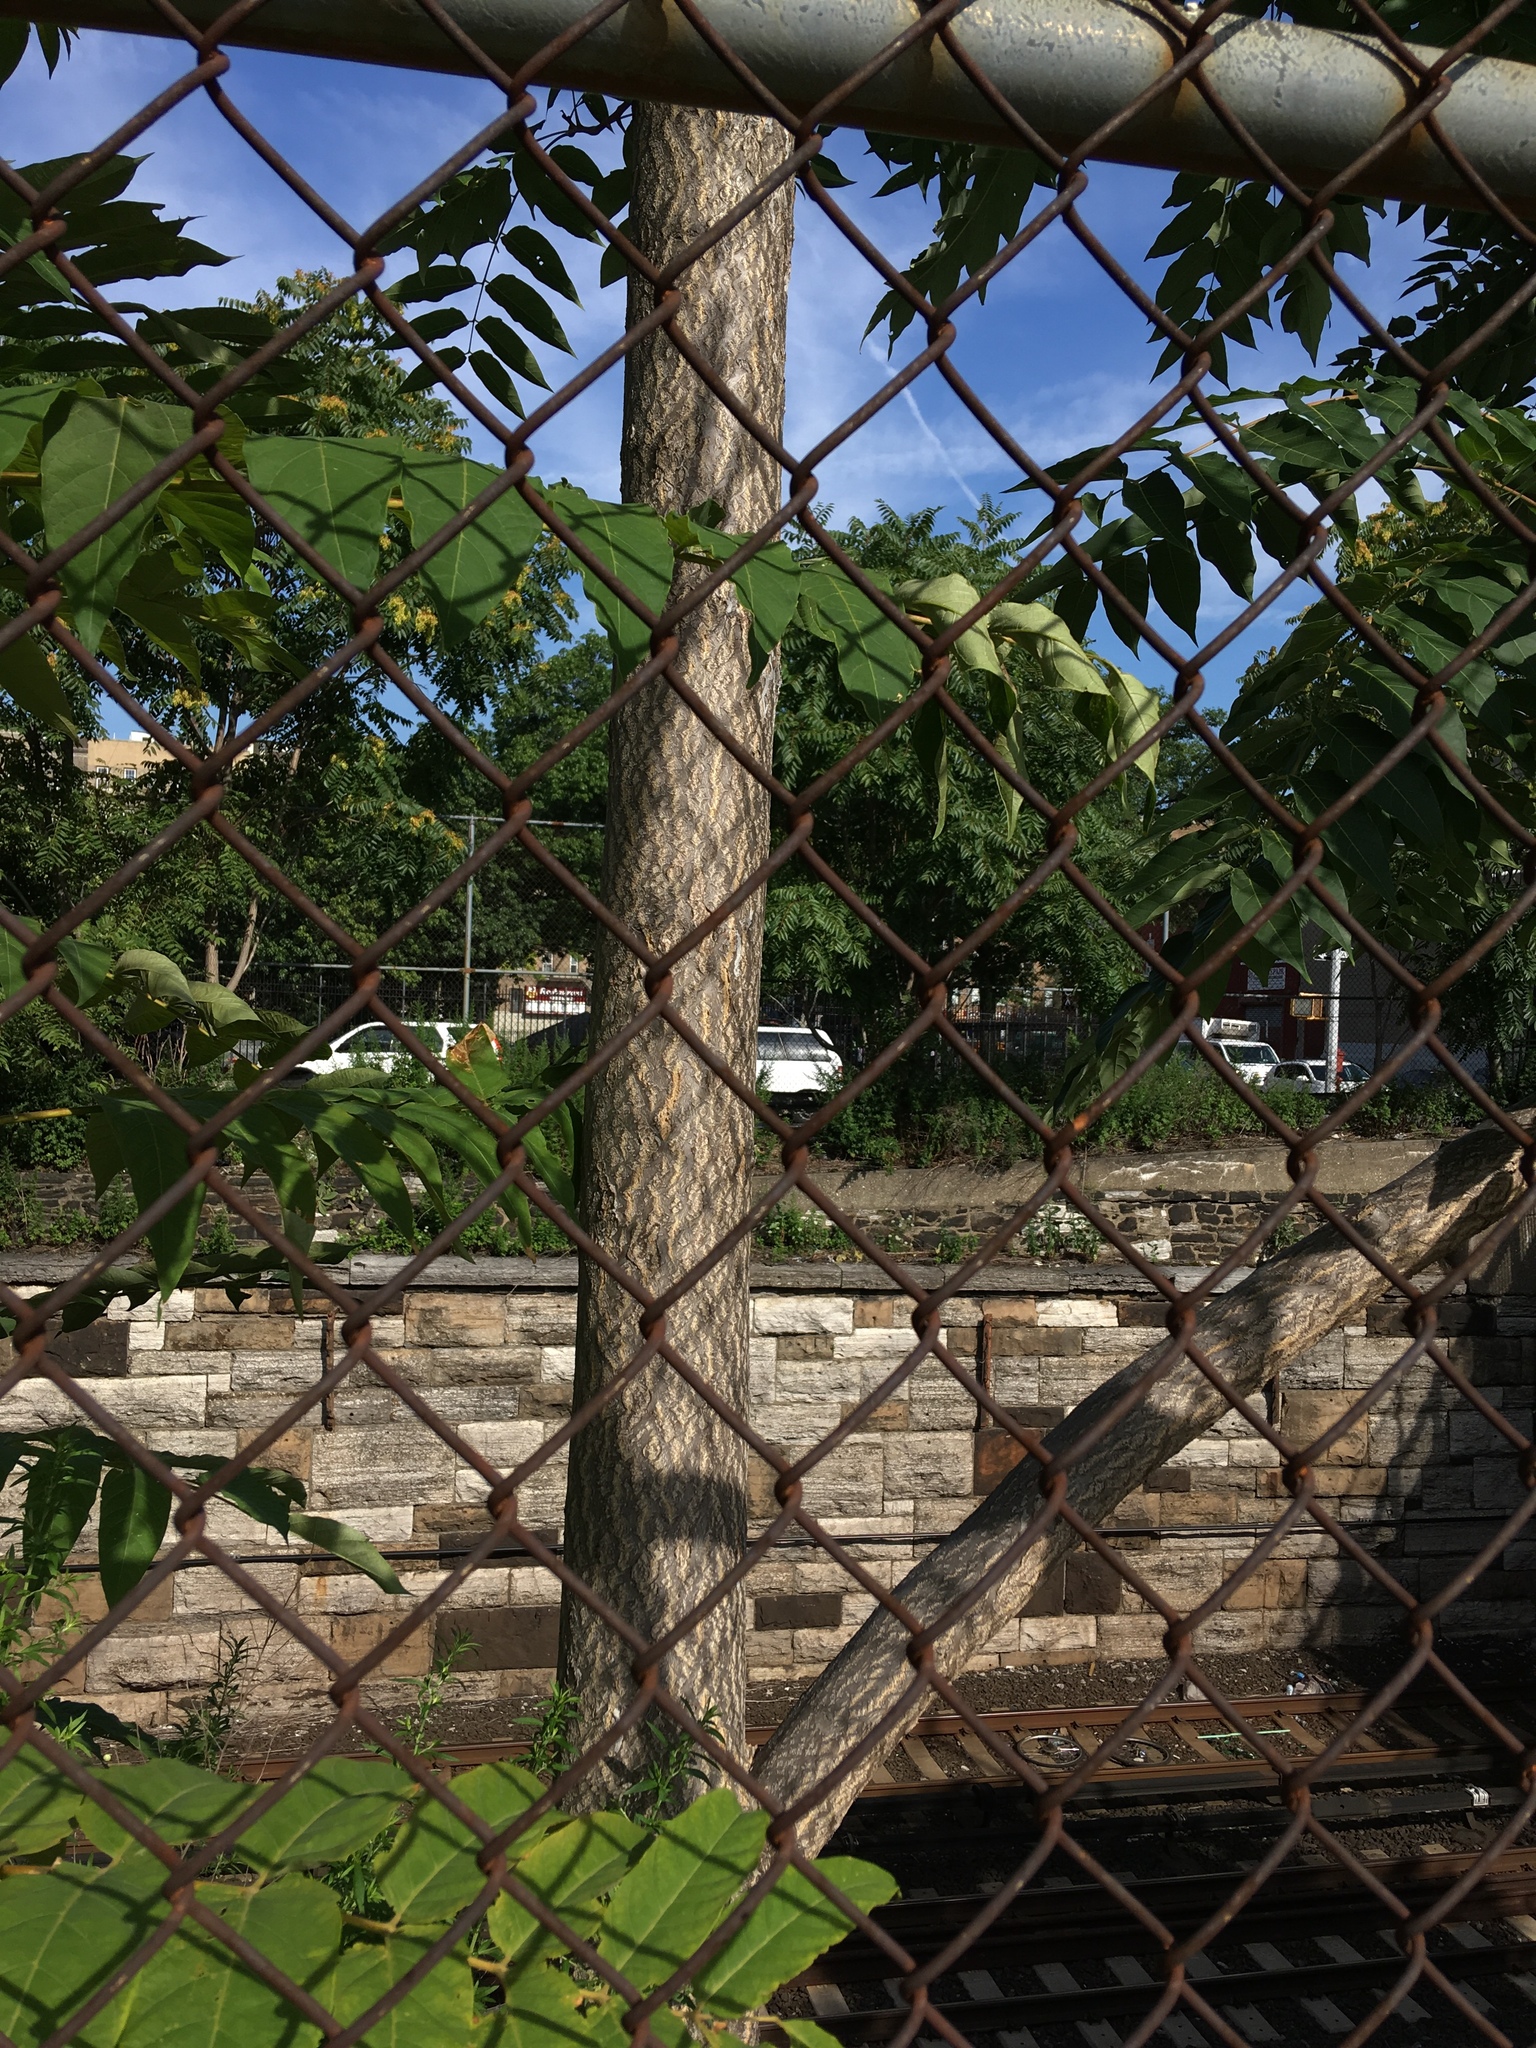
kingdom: Plantae
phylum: Tracheophyta
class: Magnoliopsida
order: Sapindales
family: Simaroubaceae
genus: Ailanthus
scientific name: Ailanthus altissima
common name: Tree-of-heaven
